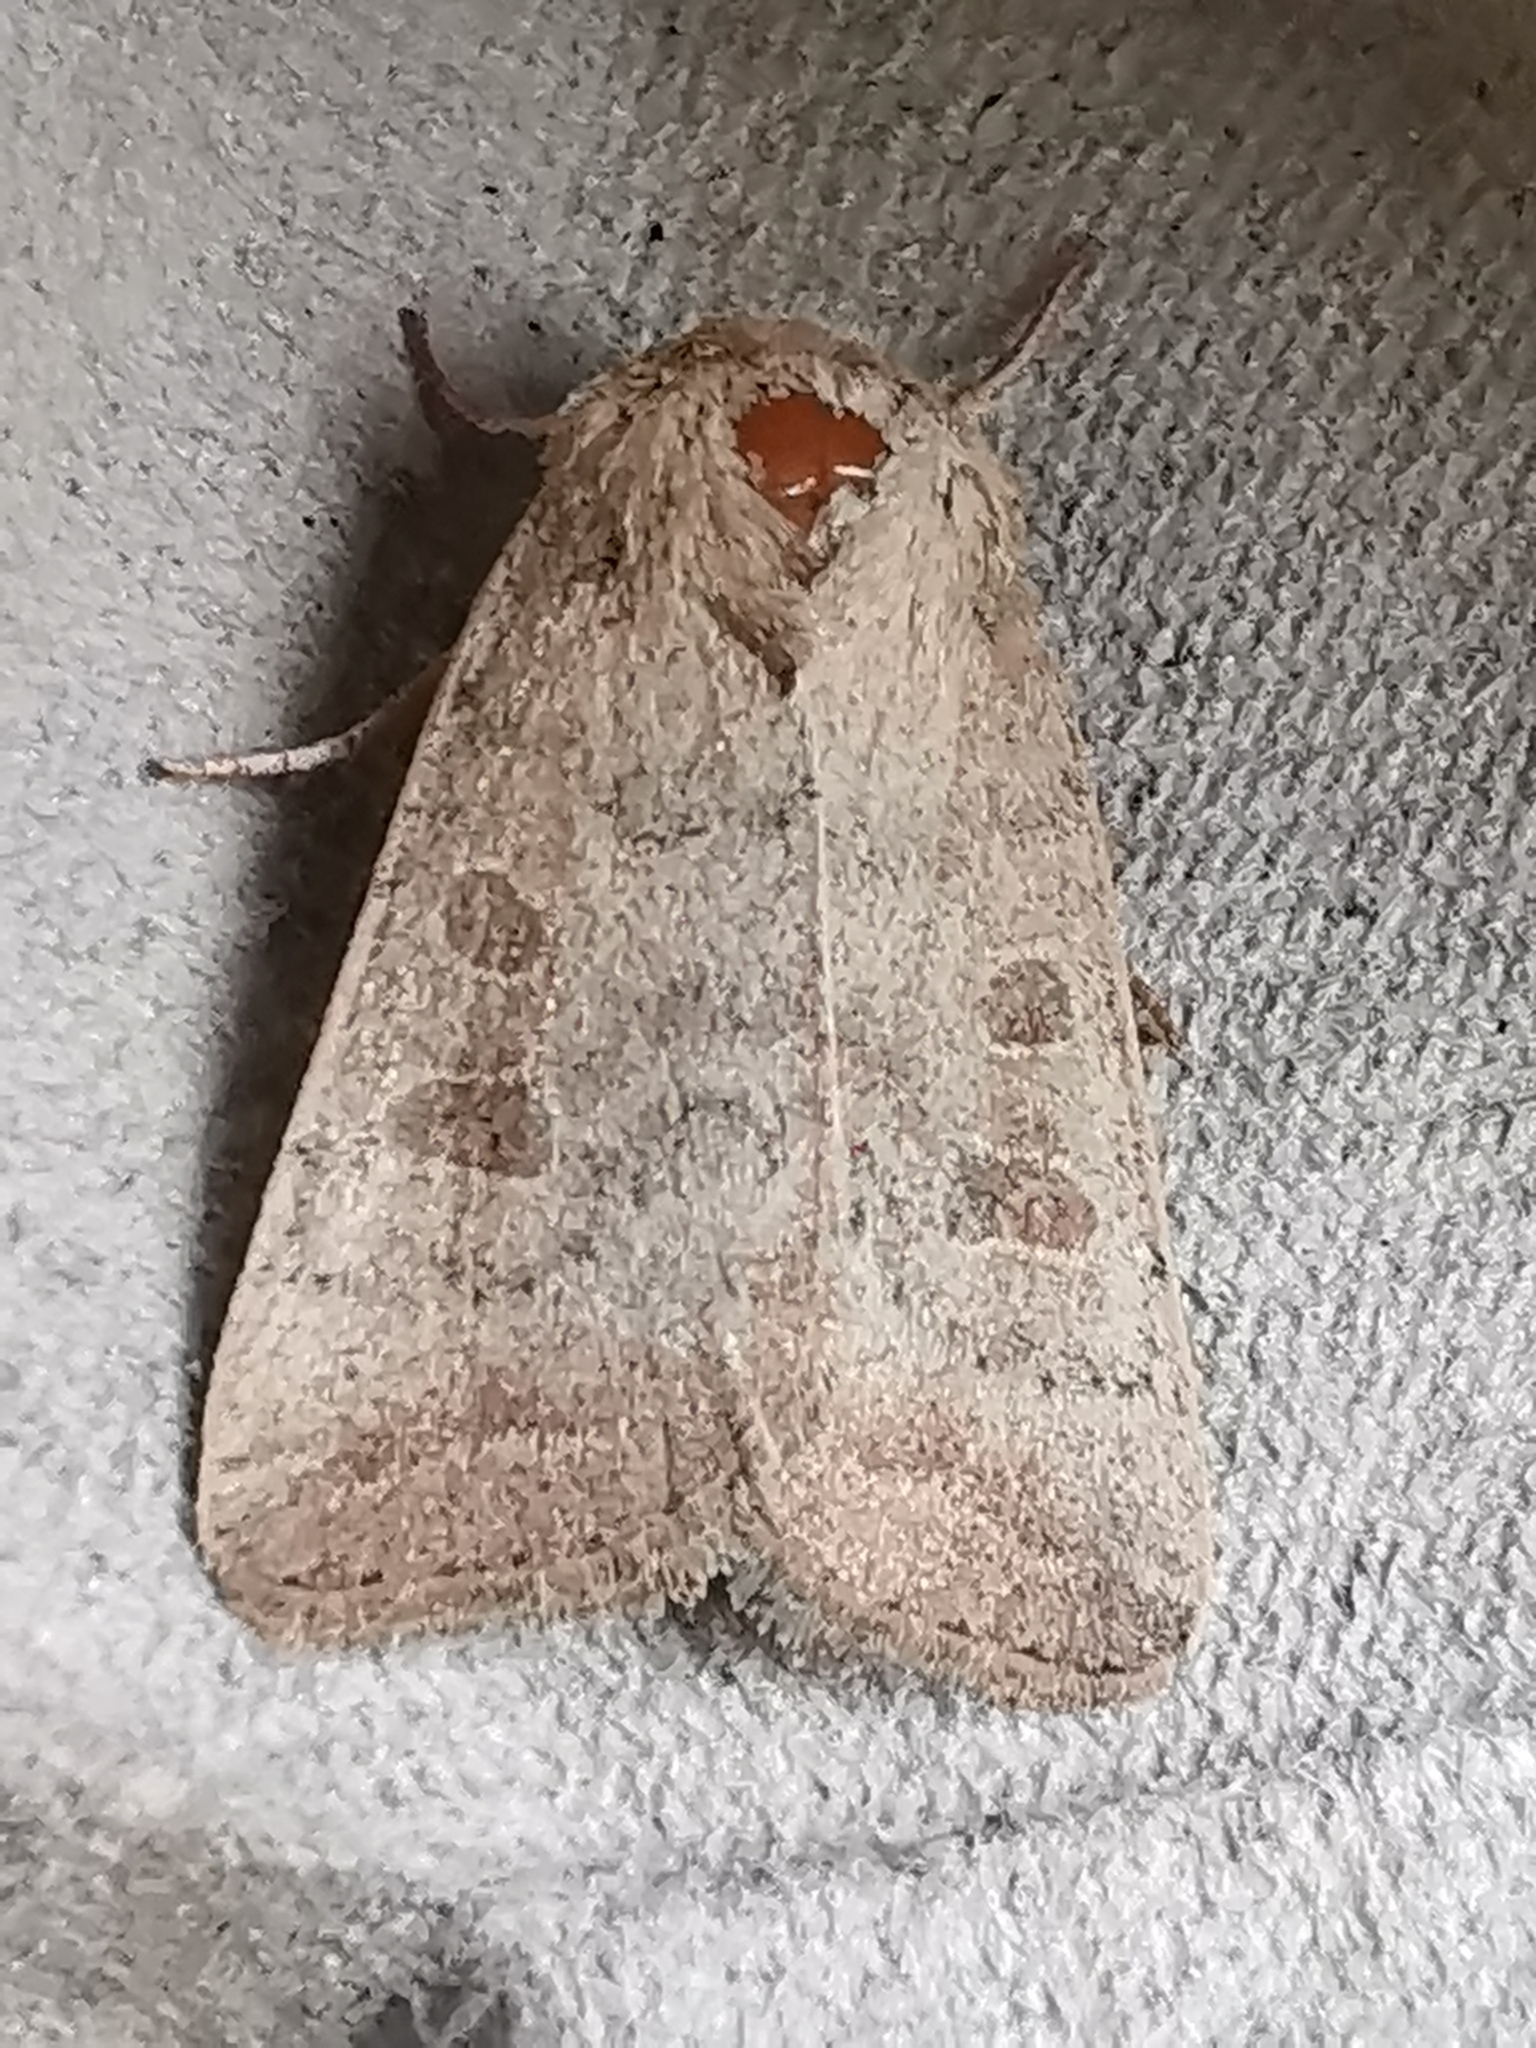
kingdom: Animalia
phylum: Arthropoda
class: Insecta
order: Lepidoptera
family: Noctuidae
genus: Hoplodrina
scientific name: Hoplodrina ambigua
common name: Vine's rustic
